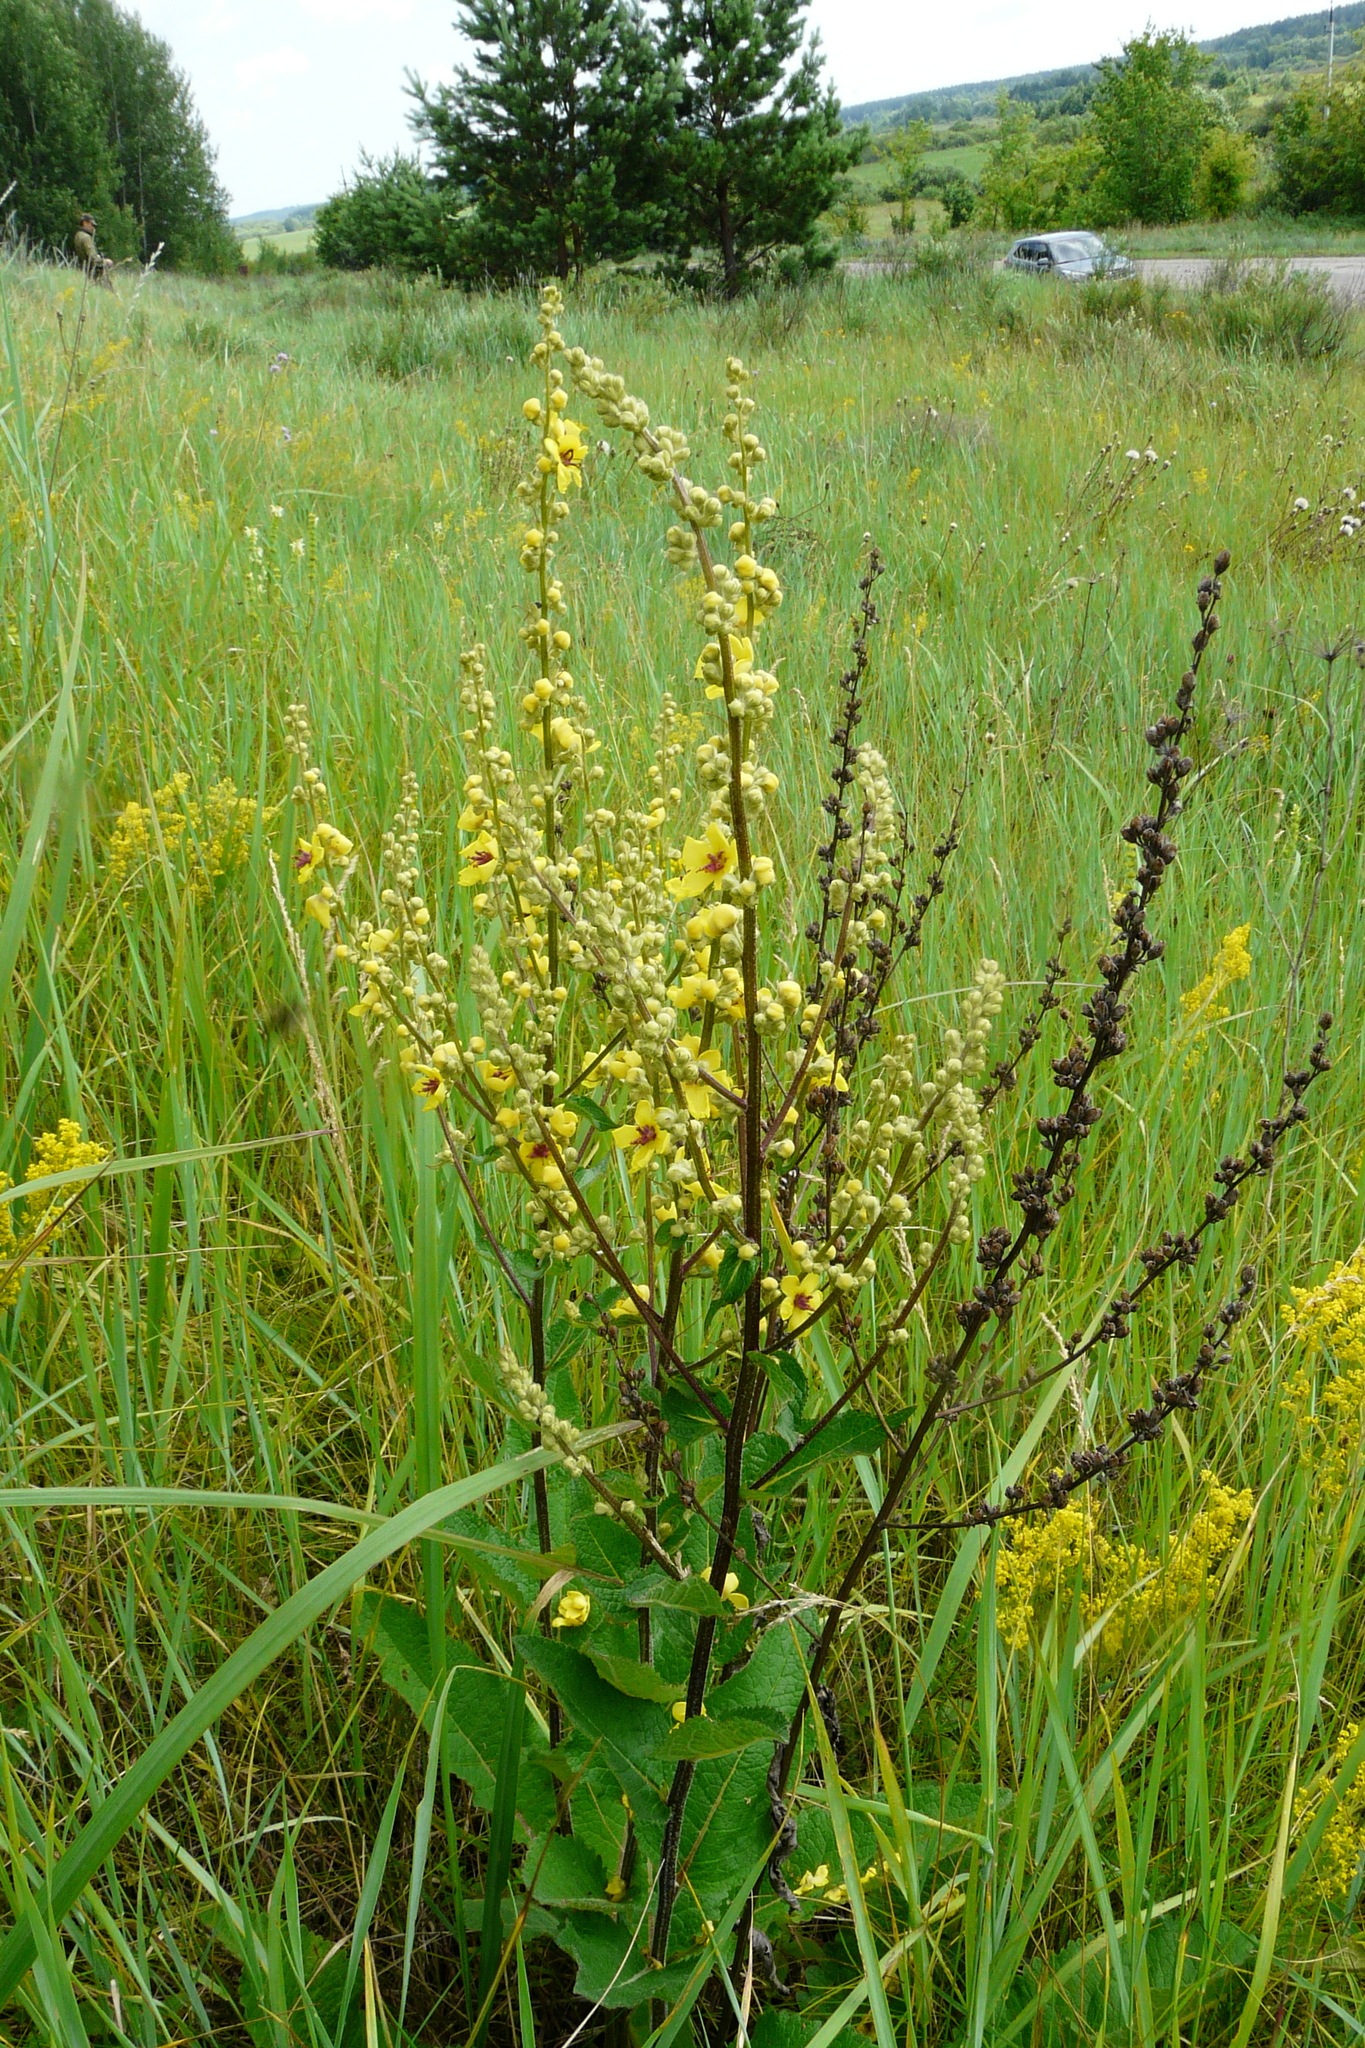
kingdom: Plantae
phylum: Tracheophyta
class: Magnoliopsida
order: Lamiales
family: Scrophulariaceae
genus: Verbascum
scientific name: Verbascum chaixii
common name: Nettle-leaved mullein
